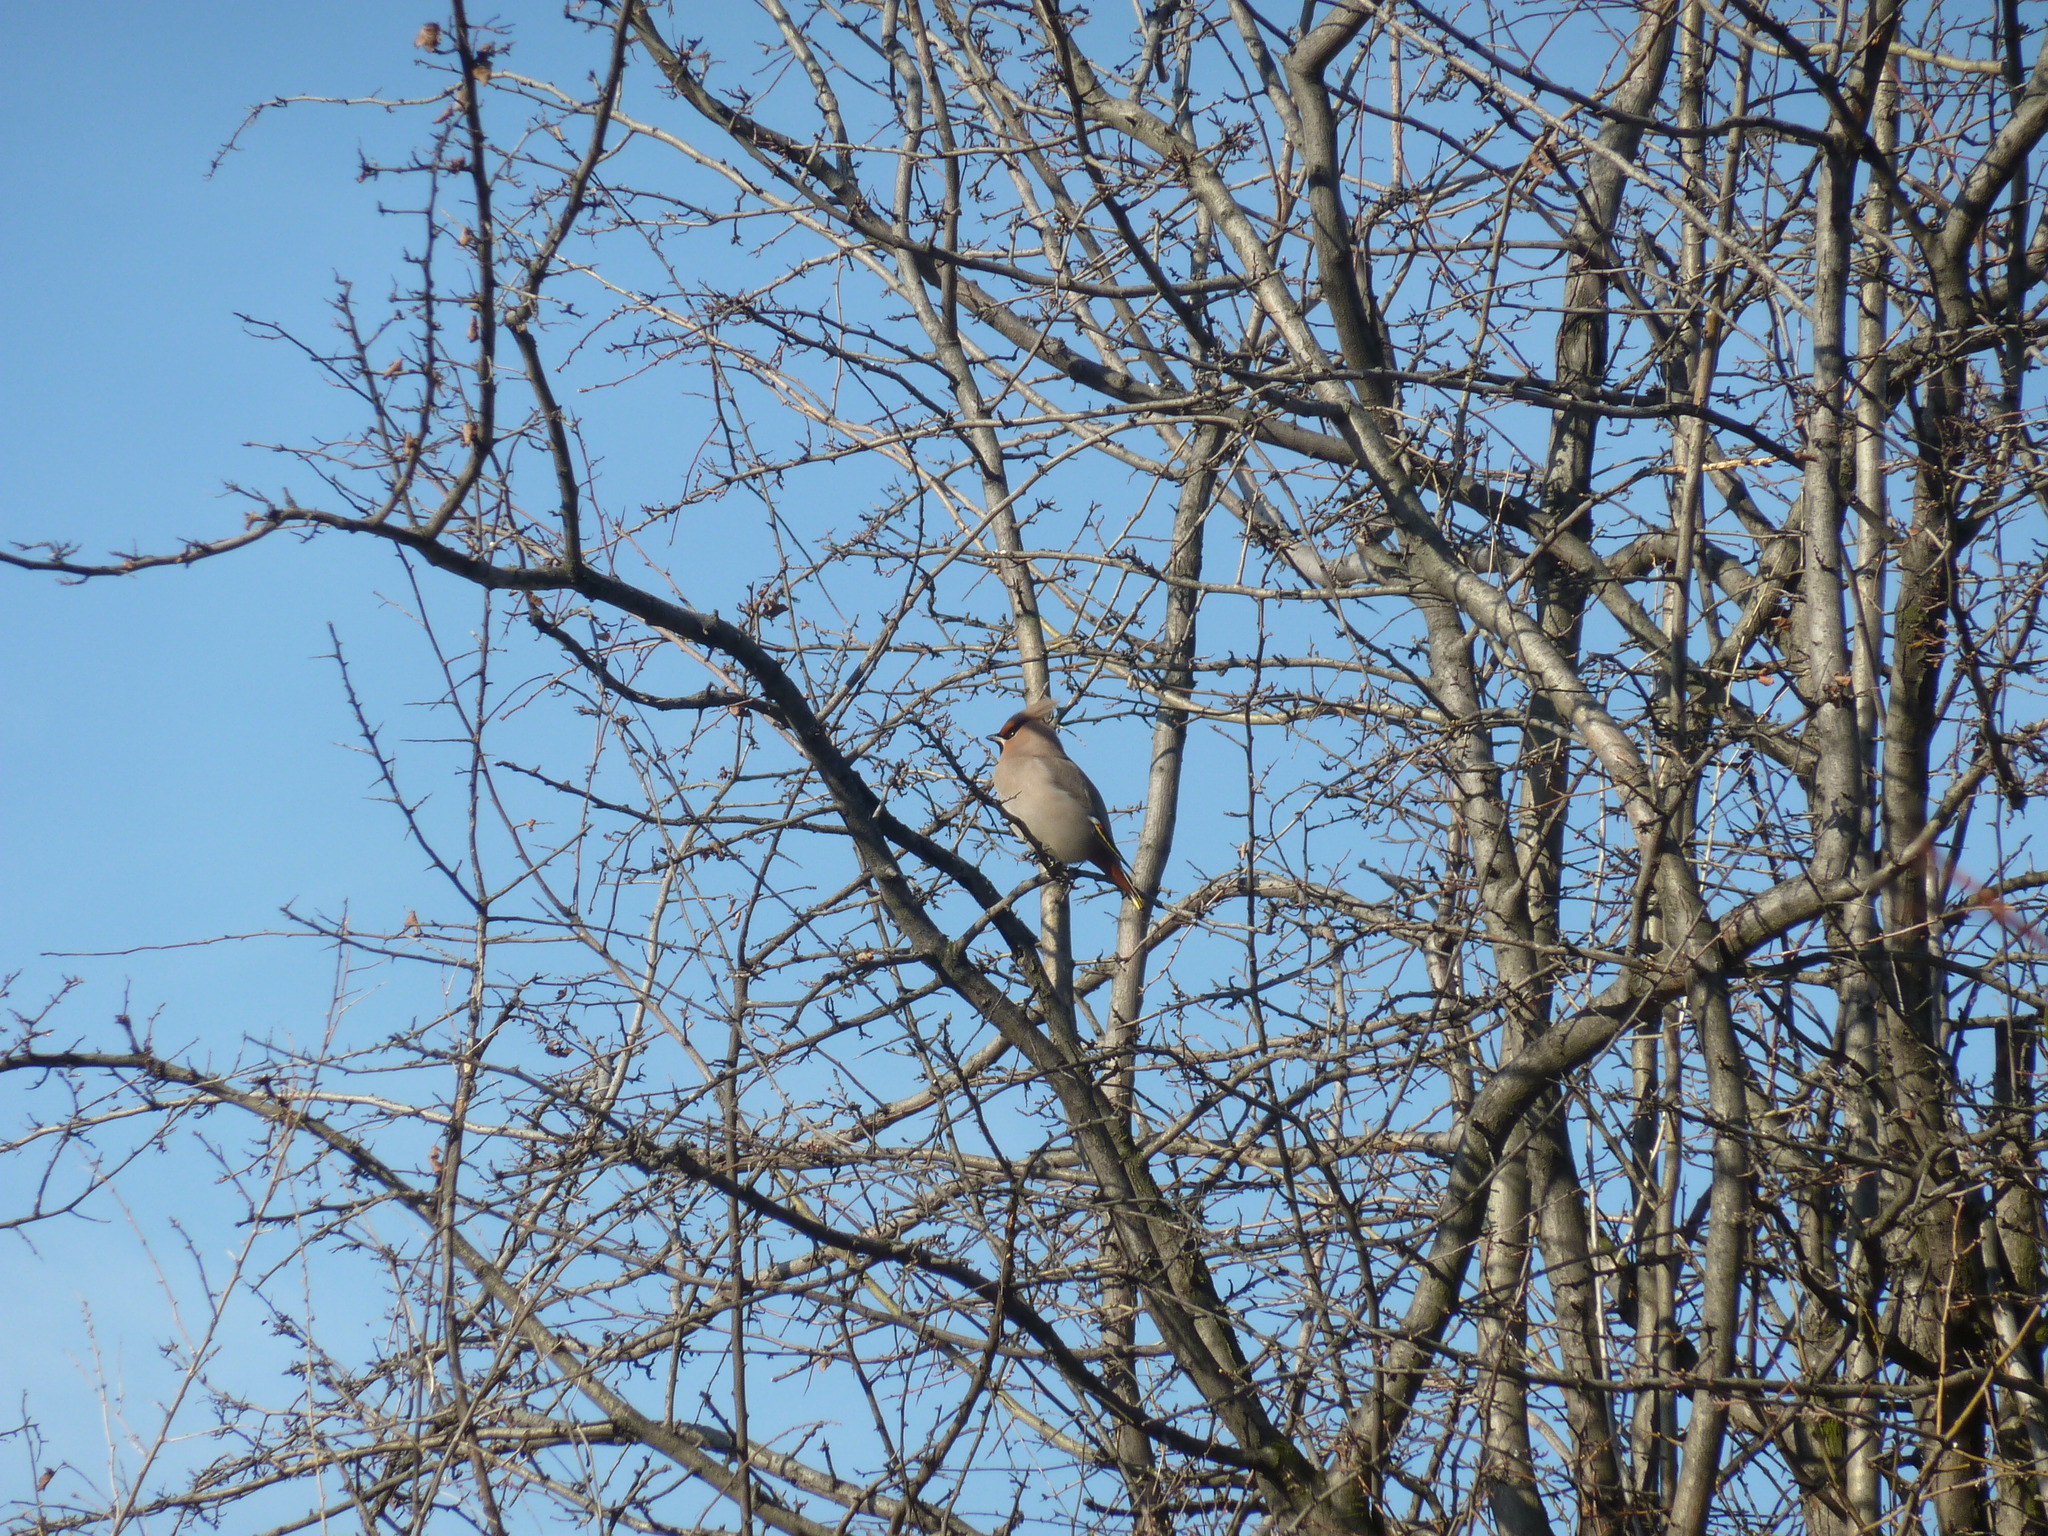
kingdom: Animalia
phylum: Chordata
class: Aves
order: Passeriformes
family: Bombycillidae
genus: Bombycilla
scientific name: Bombycilla garrulus
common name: Bohemian waxwing
